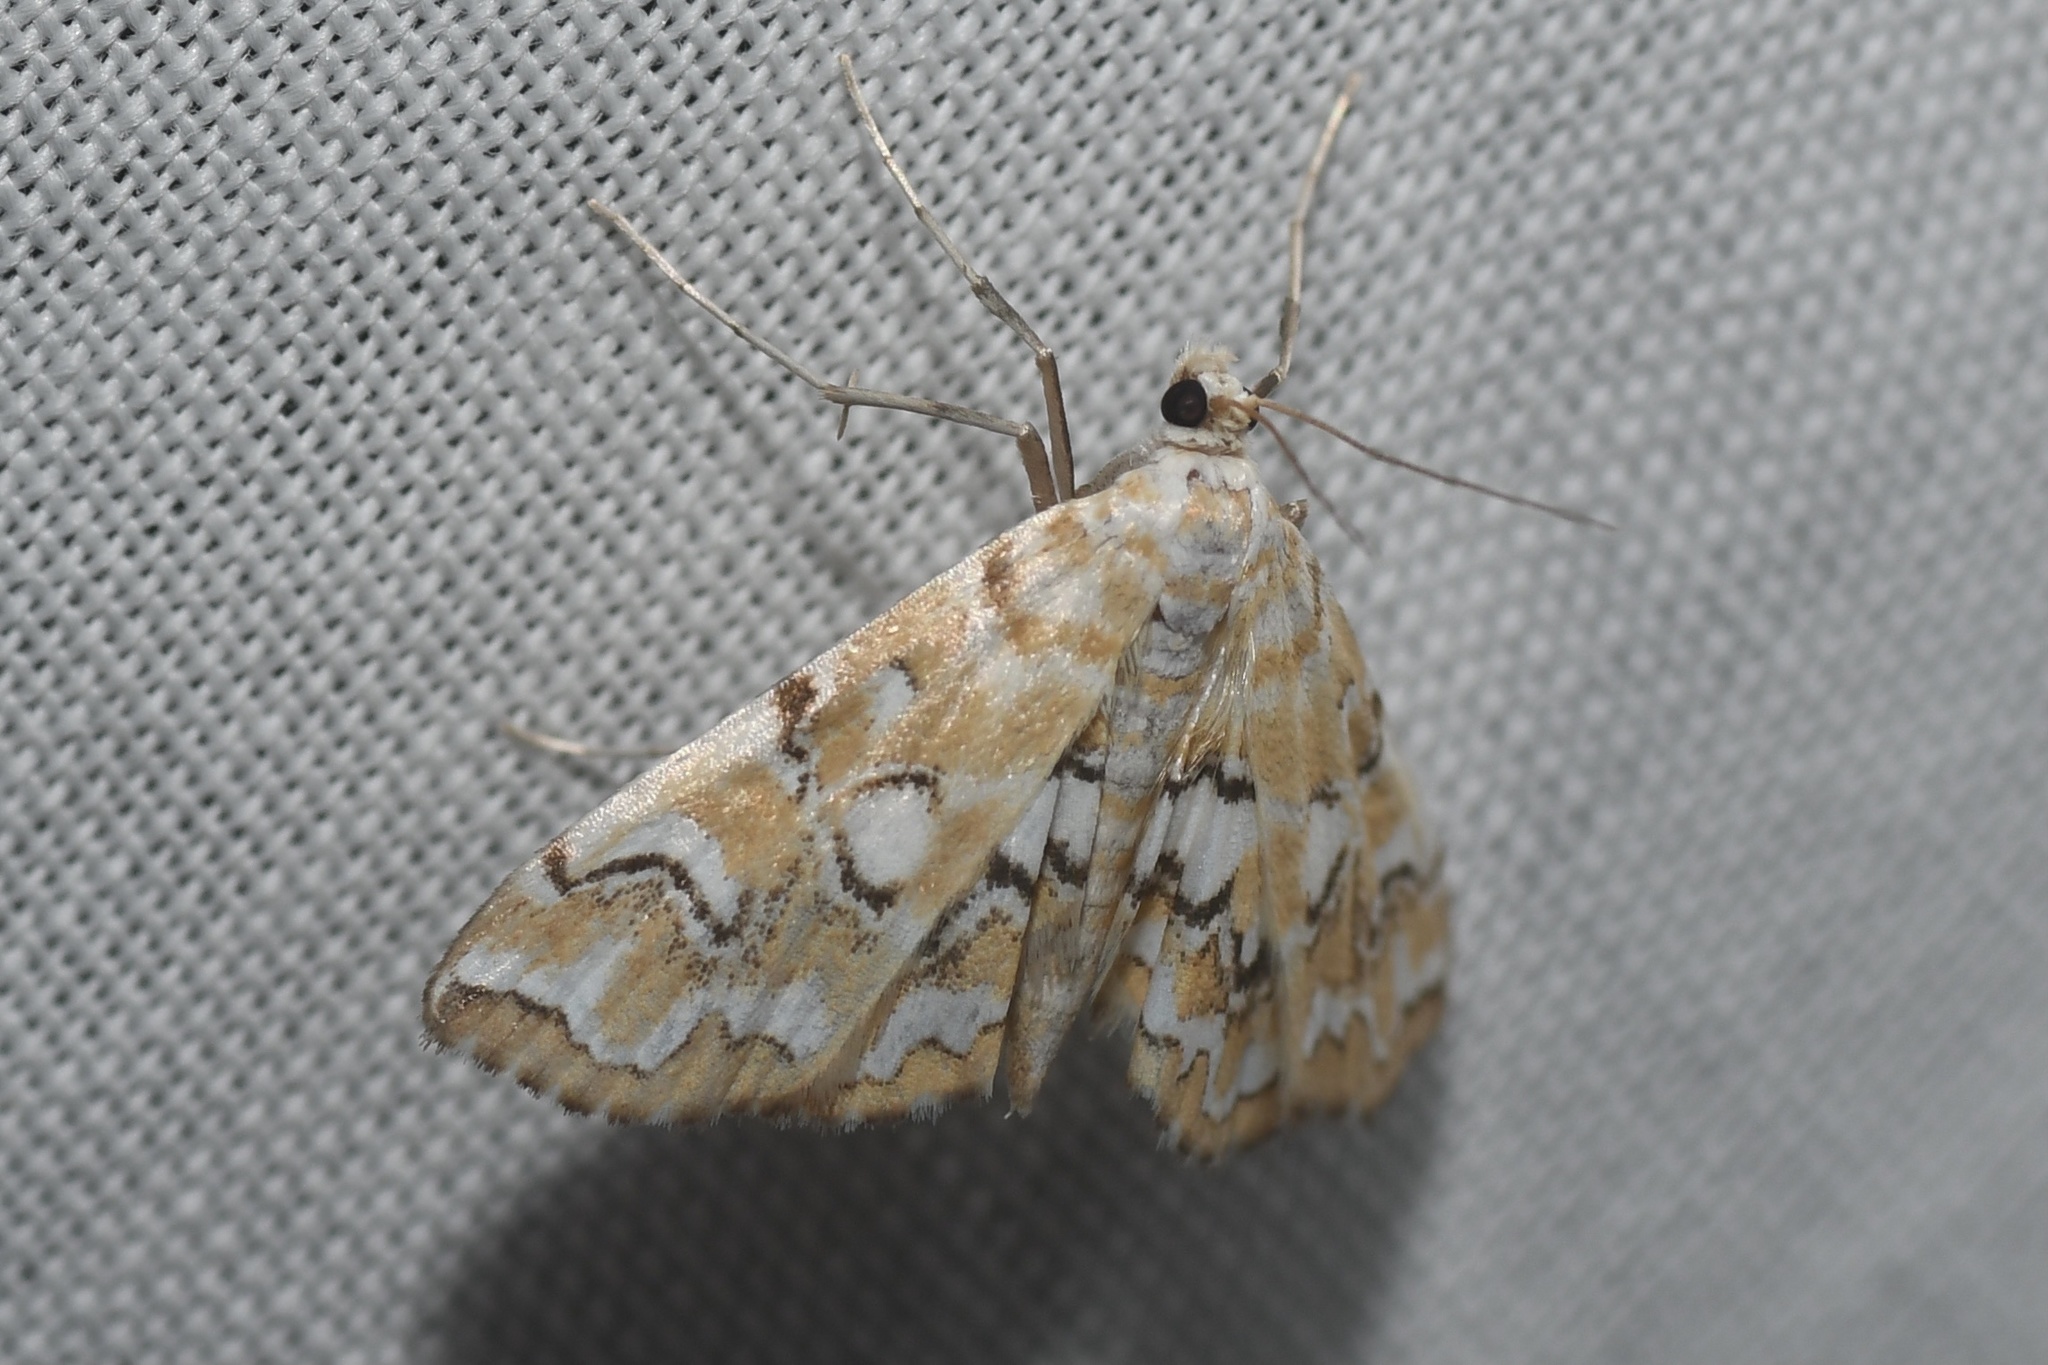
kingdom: Animalia
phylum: Arthropoda
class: Insecta
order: Lepidoptera
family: Crambidae
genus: Elophila
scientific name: Elophila icciusalis
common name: Pondside pyralid moth
